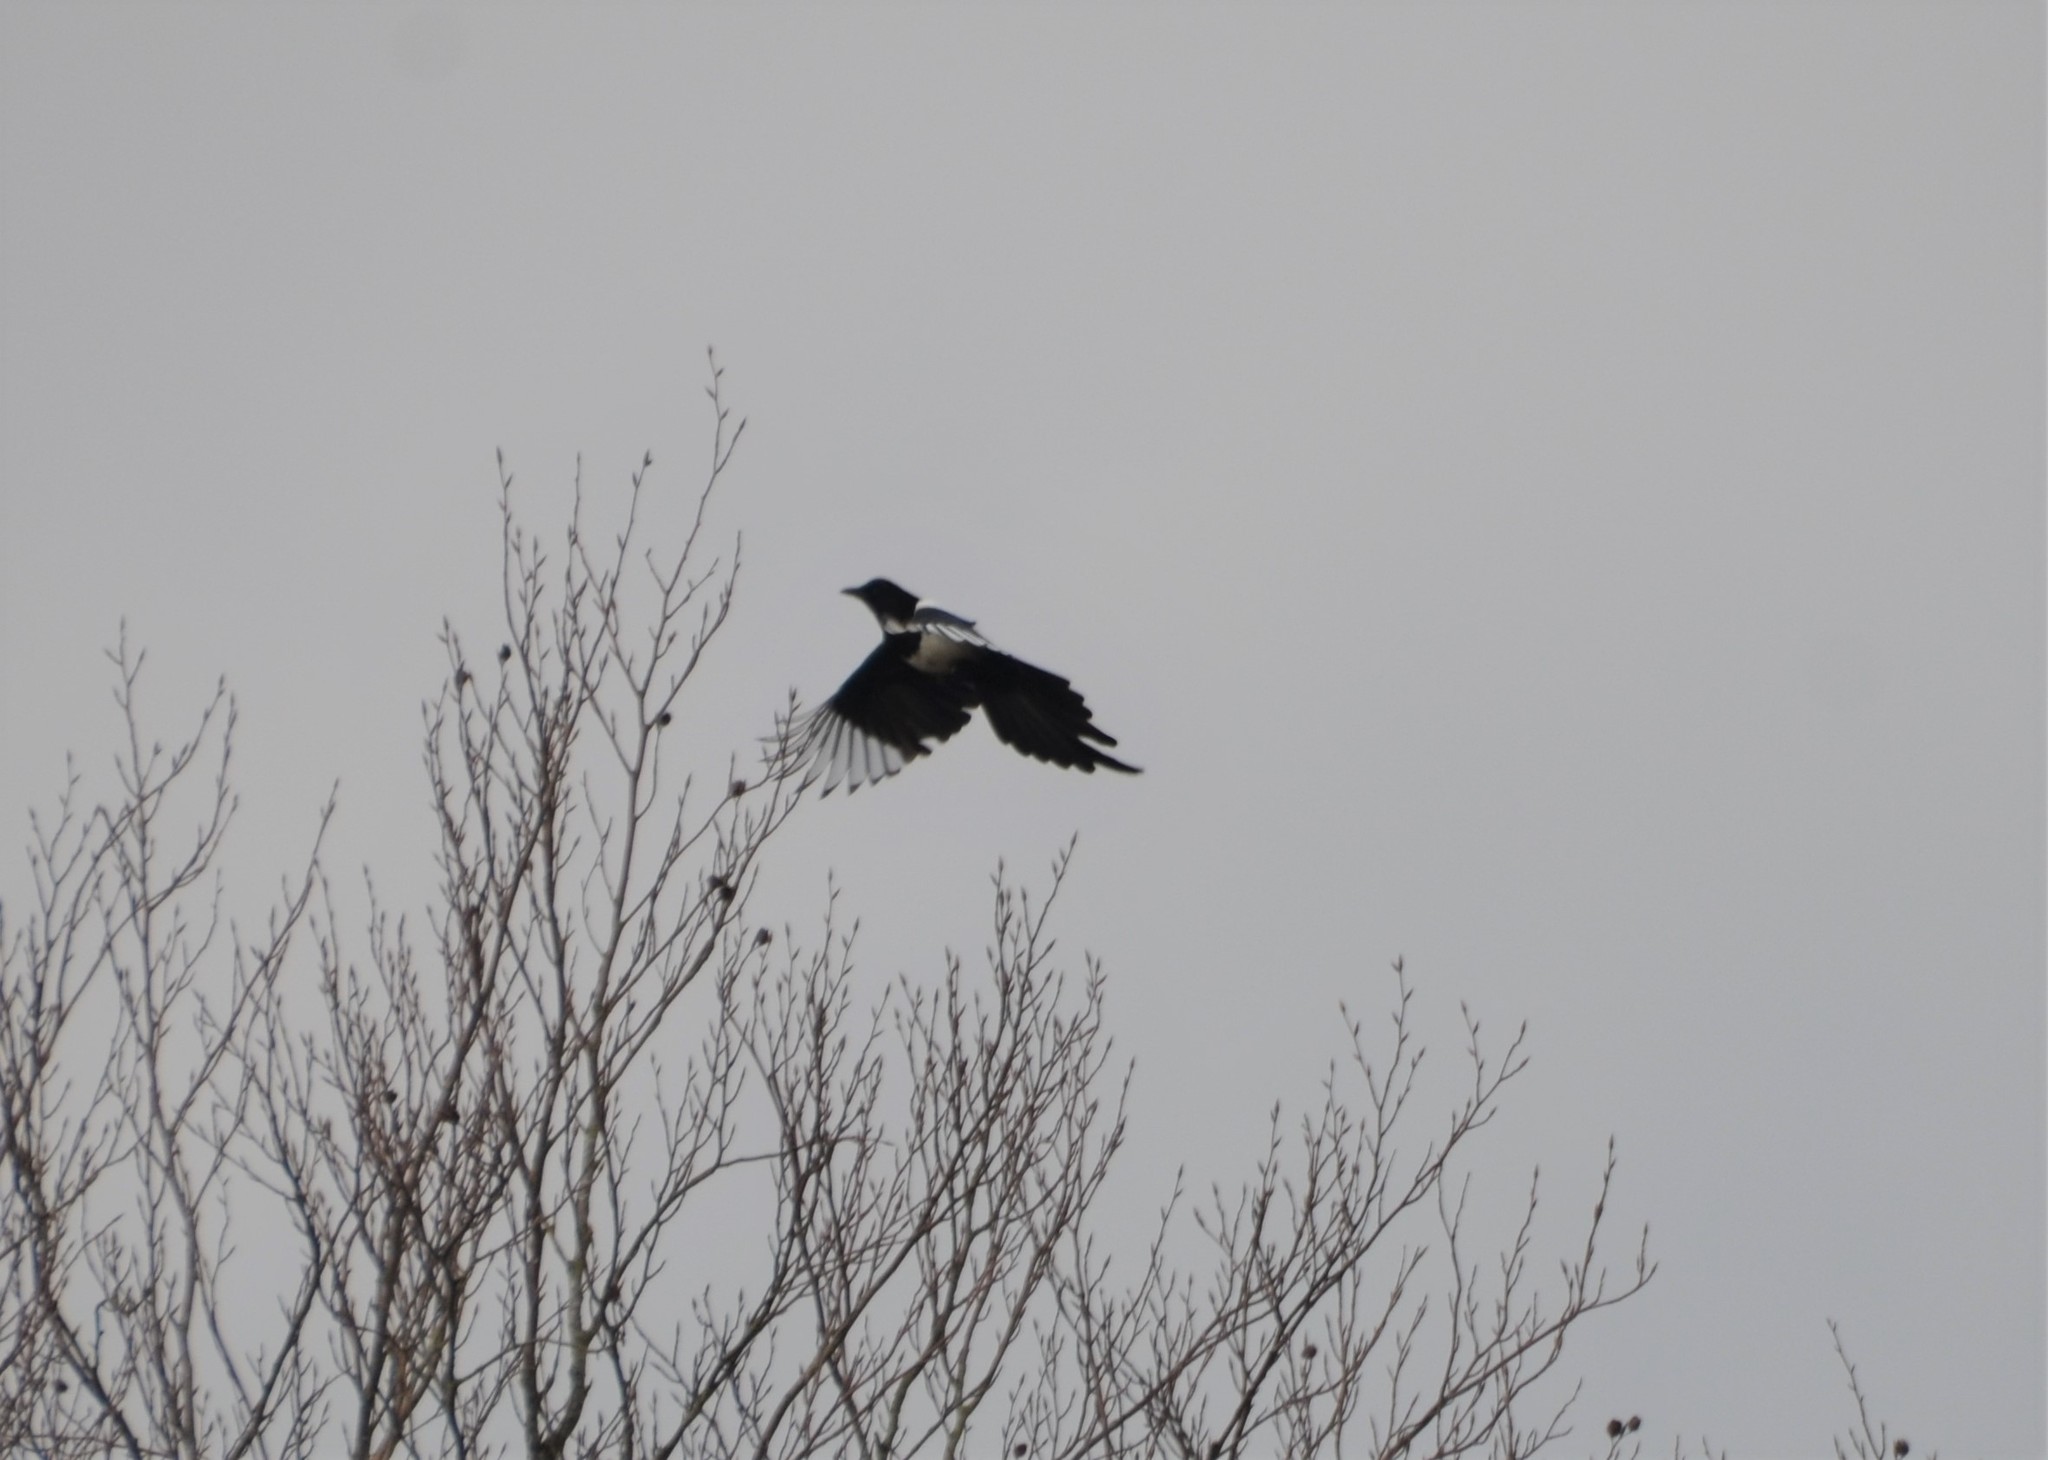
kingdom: Animalia
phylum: Chordata
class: Aves
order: Passeriformes
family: Corvidae
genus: Pica
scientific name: Pica pica
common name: Eurasian magpie
